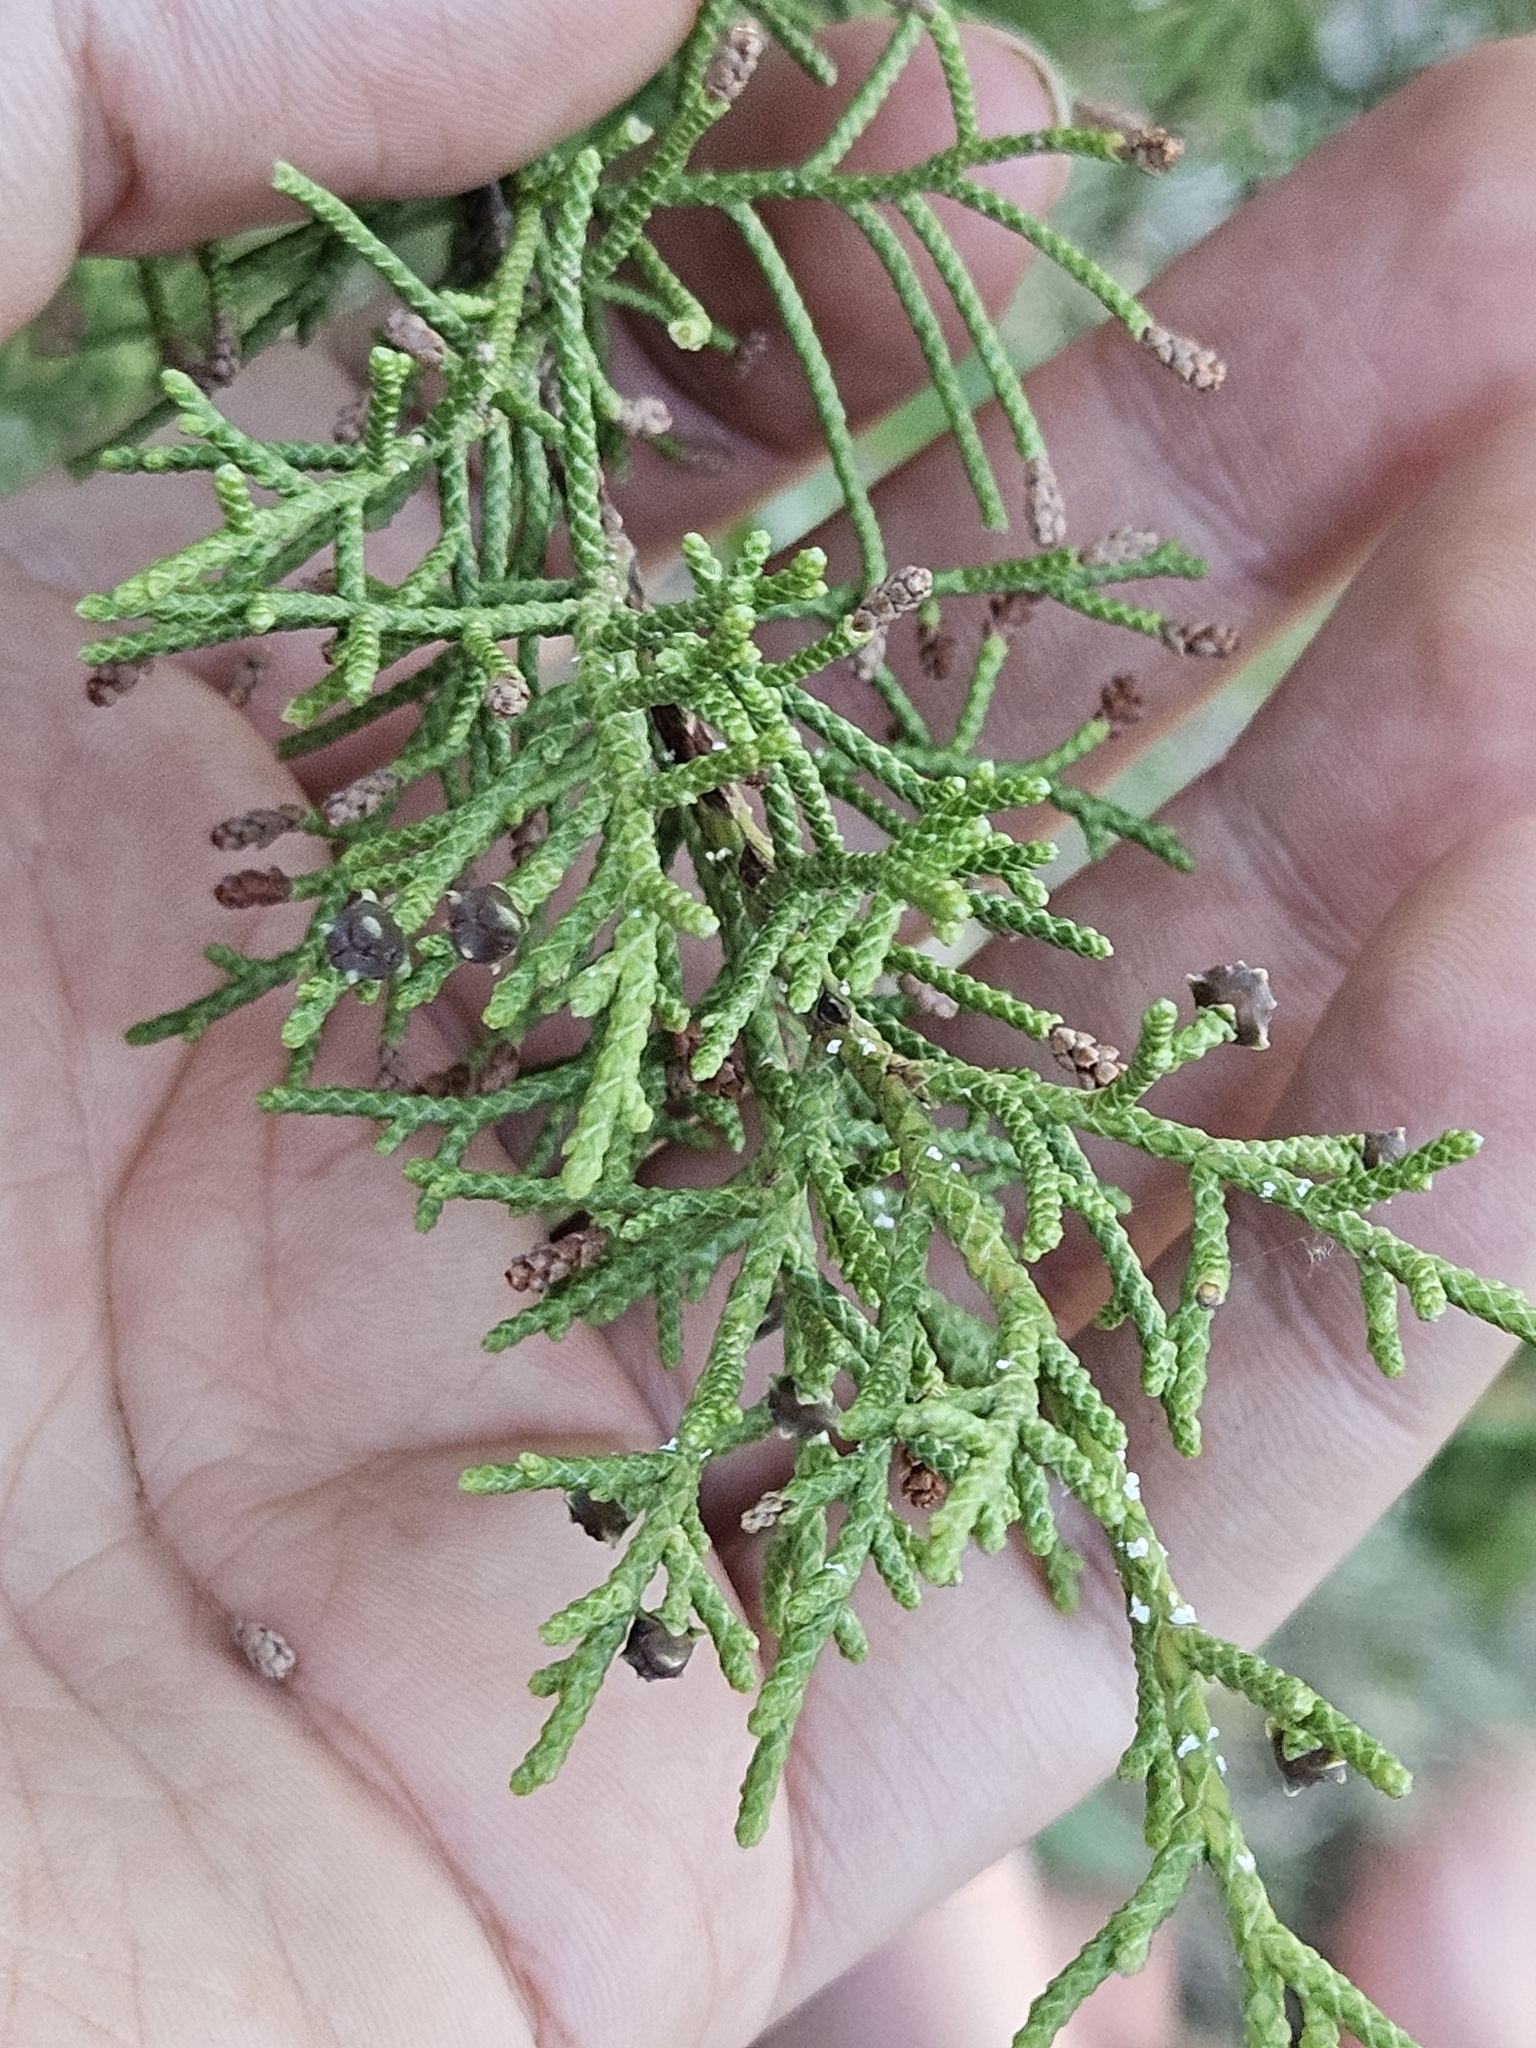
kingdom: Plantae
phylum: Tracheophyta
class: Pinopsida
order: Pinales
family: Cupressaceae
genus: Juniperus
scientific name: Juniperus phoenicea
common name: Phoenician juniper
